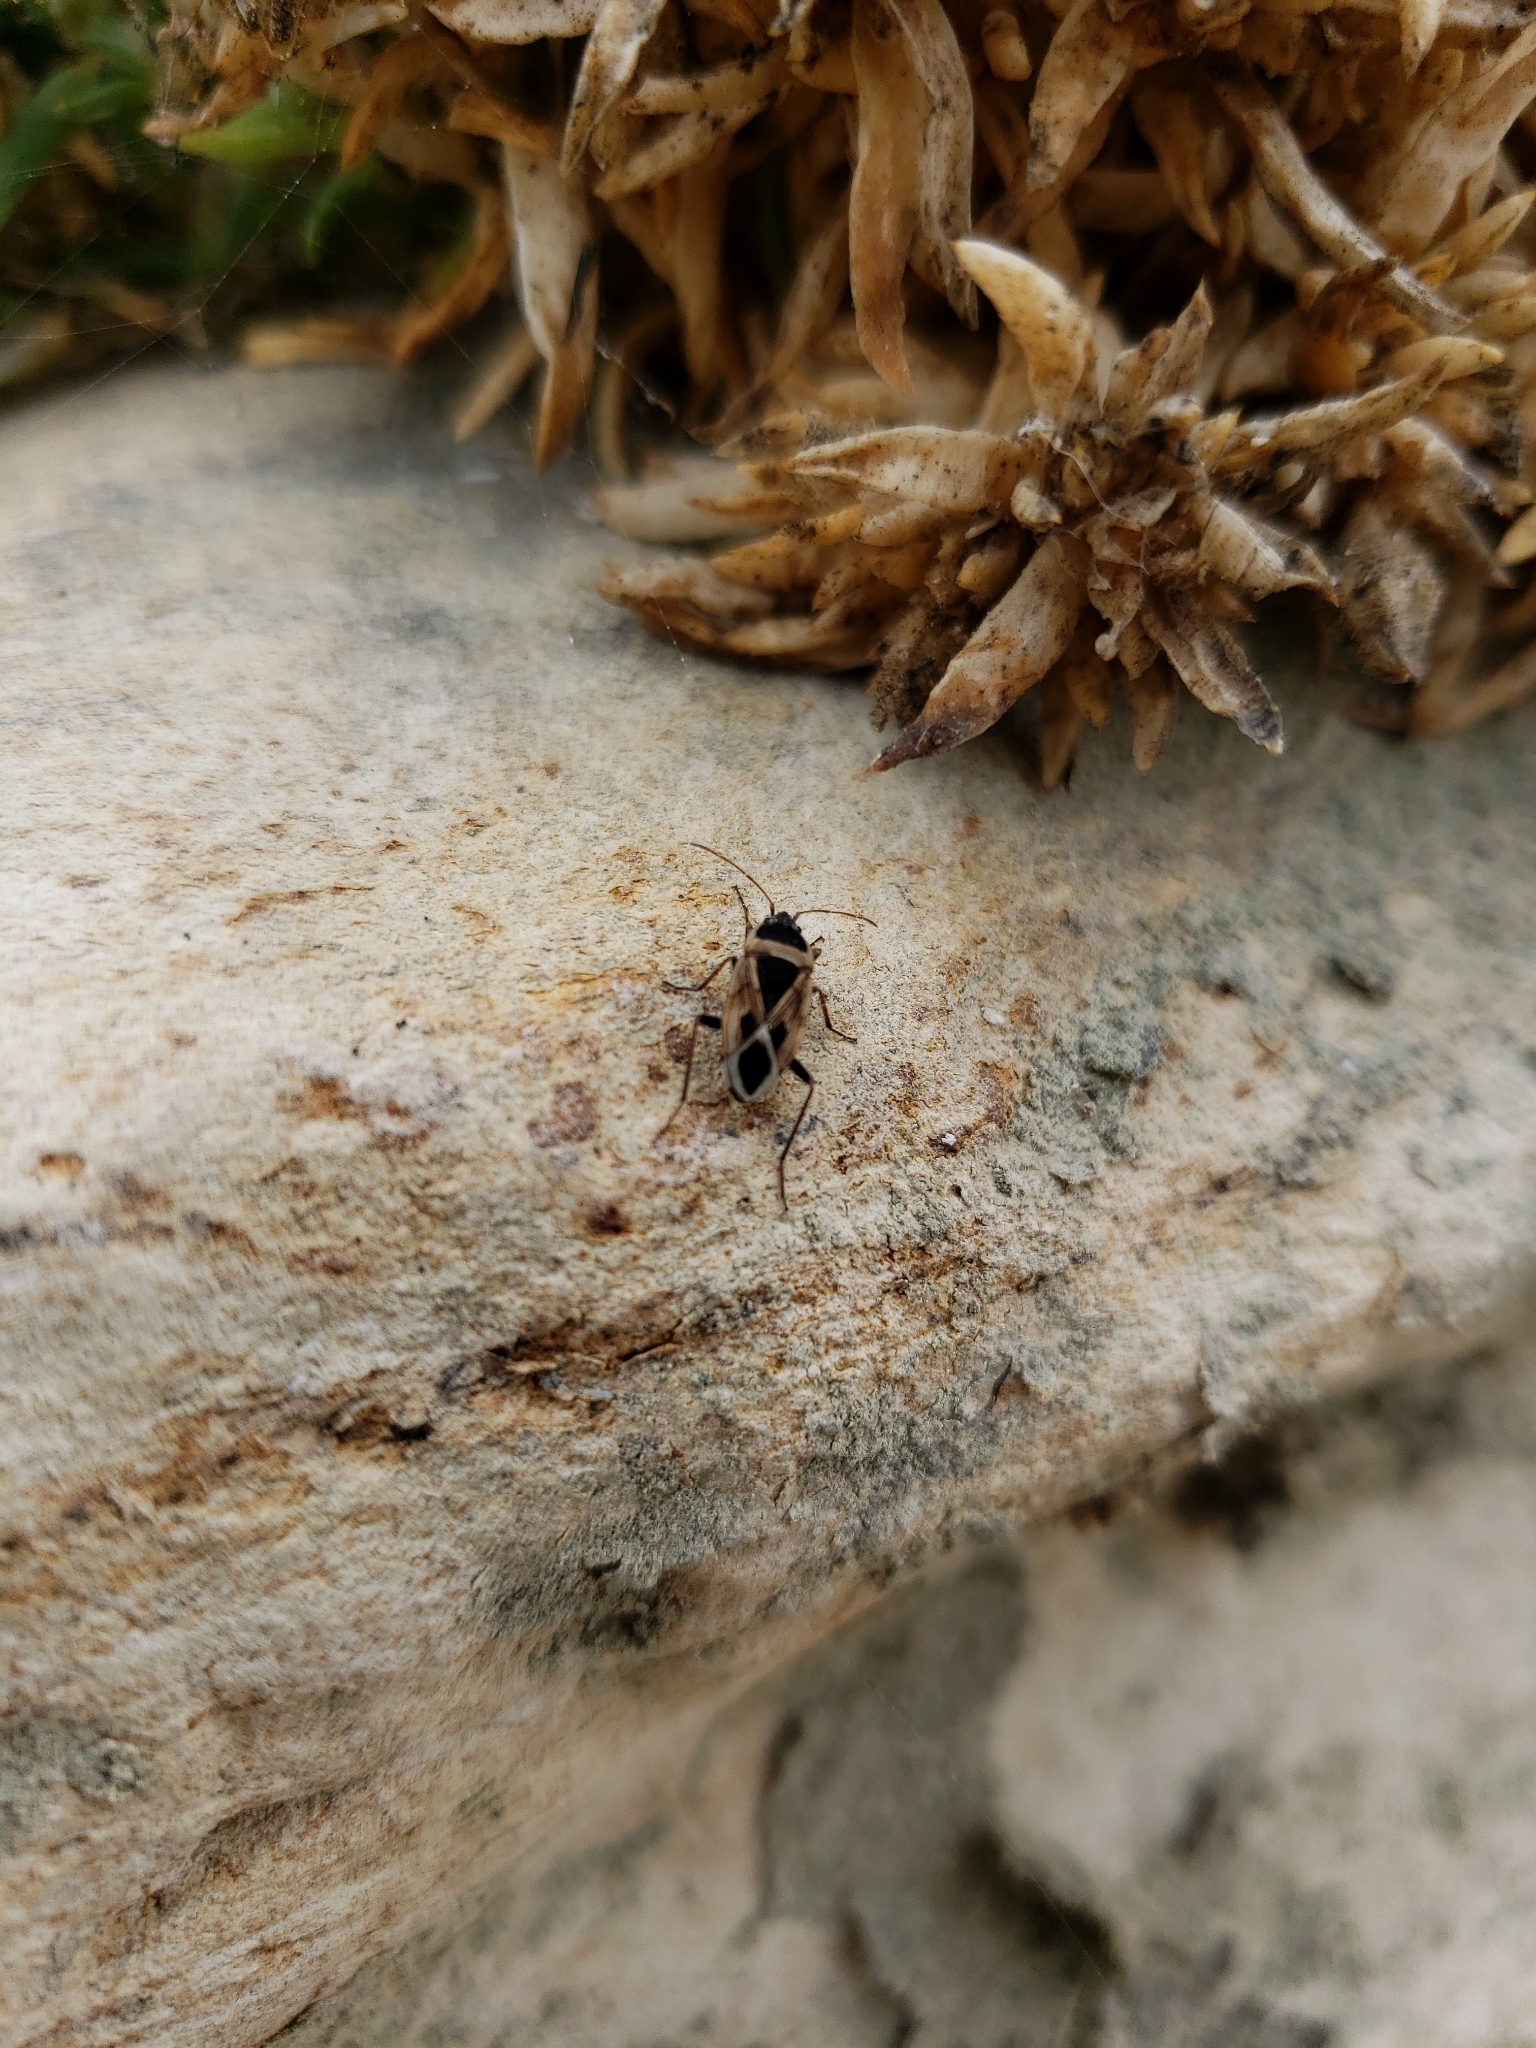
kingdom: Animalia
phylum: Arthropoda
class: Insecta
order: Hemiptera
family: Rhyparochromidae
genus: Xanthochilus
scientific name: Xanthochilus saturnius
